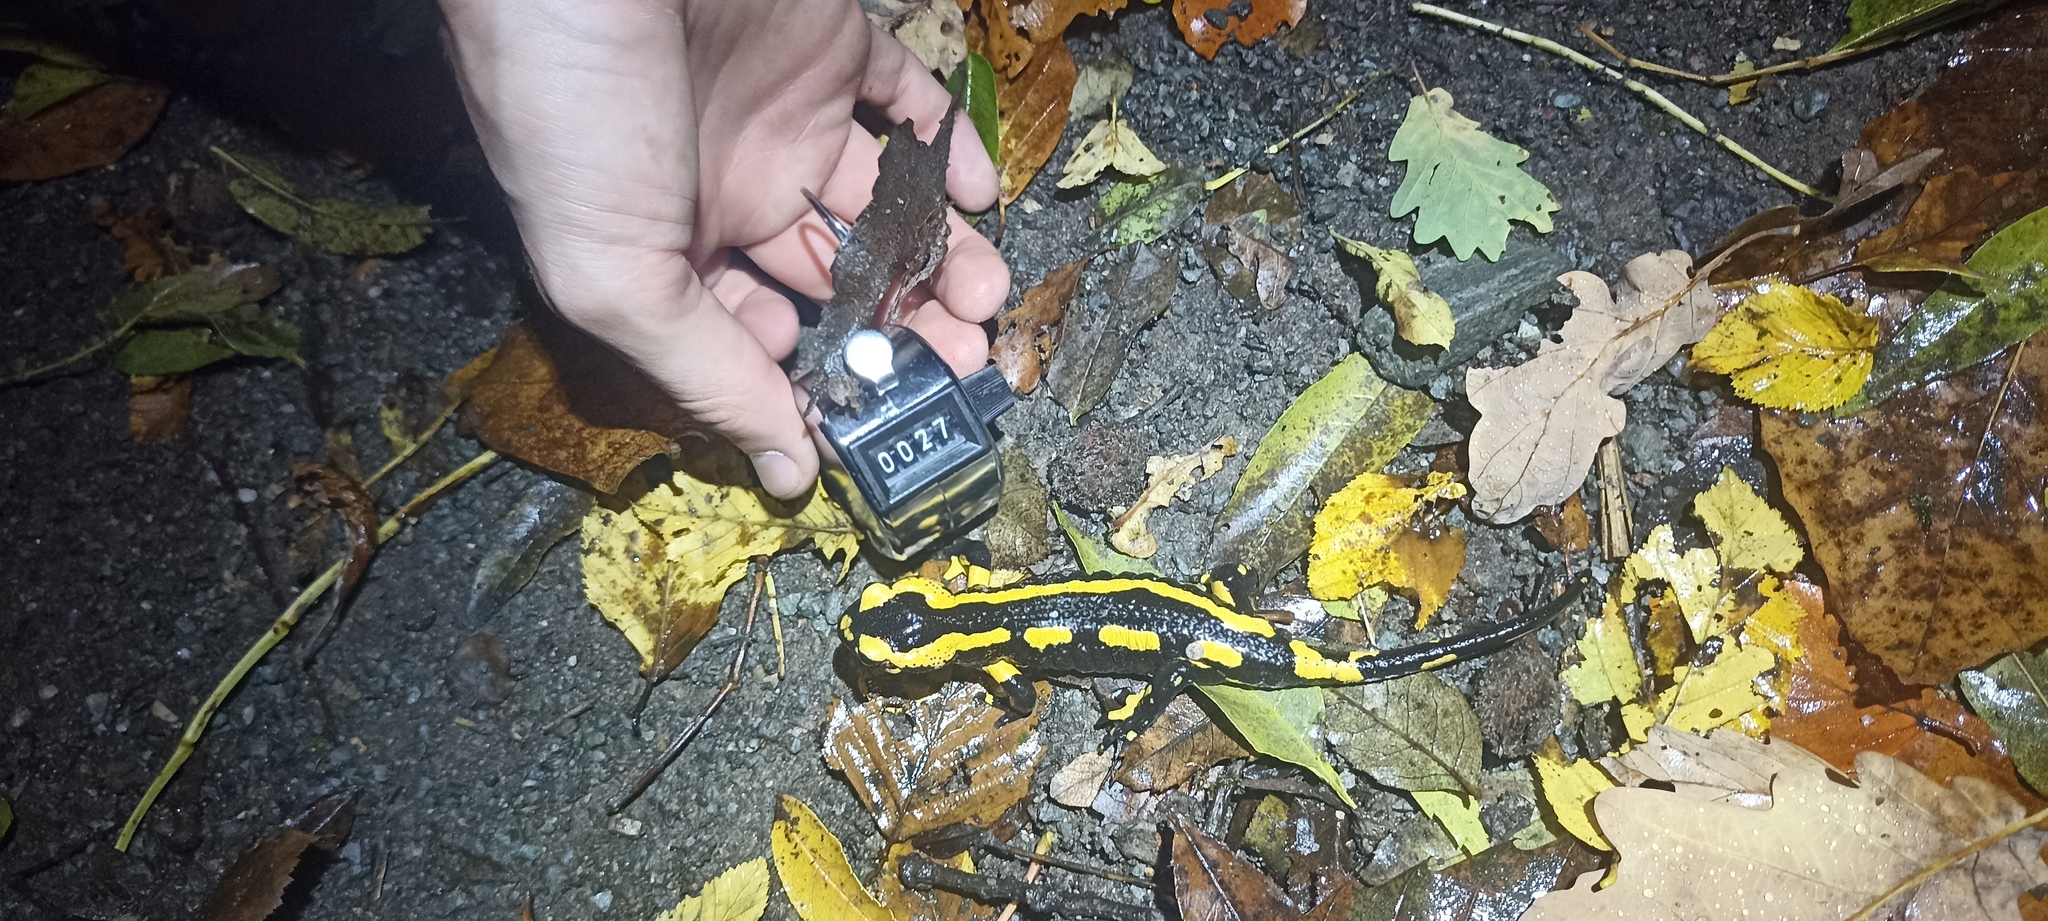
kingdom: Animalia
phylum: Chordata
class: Amphibia
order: Caudata
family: Salamandridae
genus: Salamandra
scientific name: Salamandra salamandra
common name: Fire salamander
